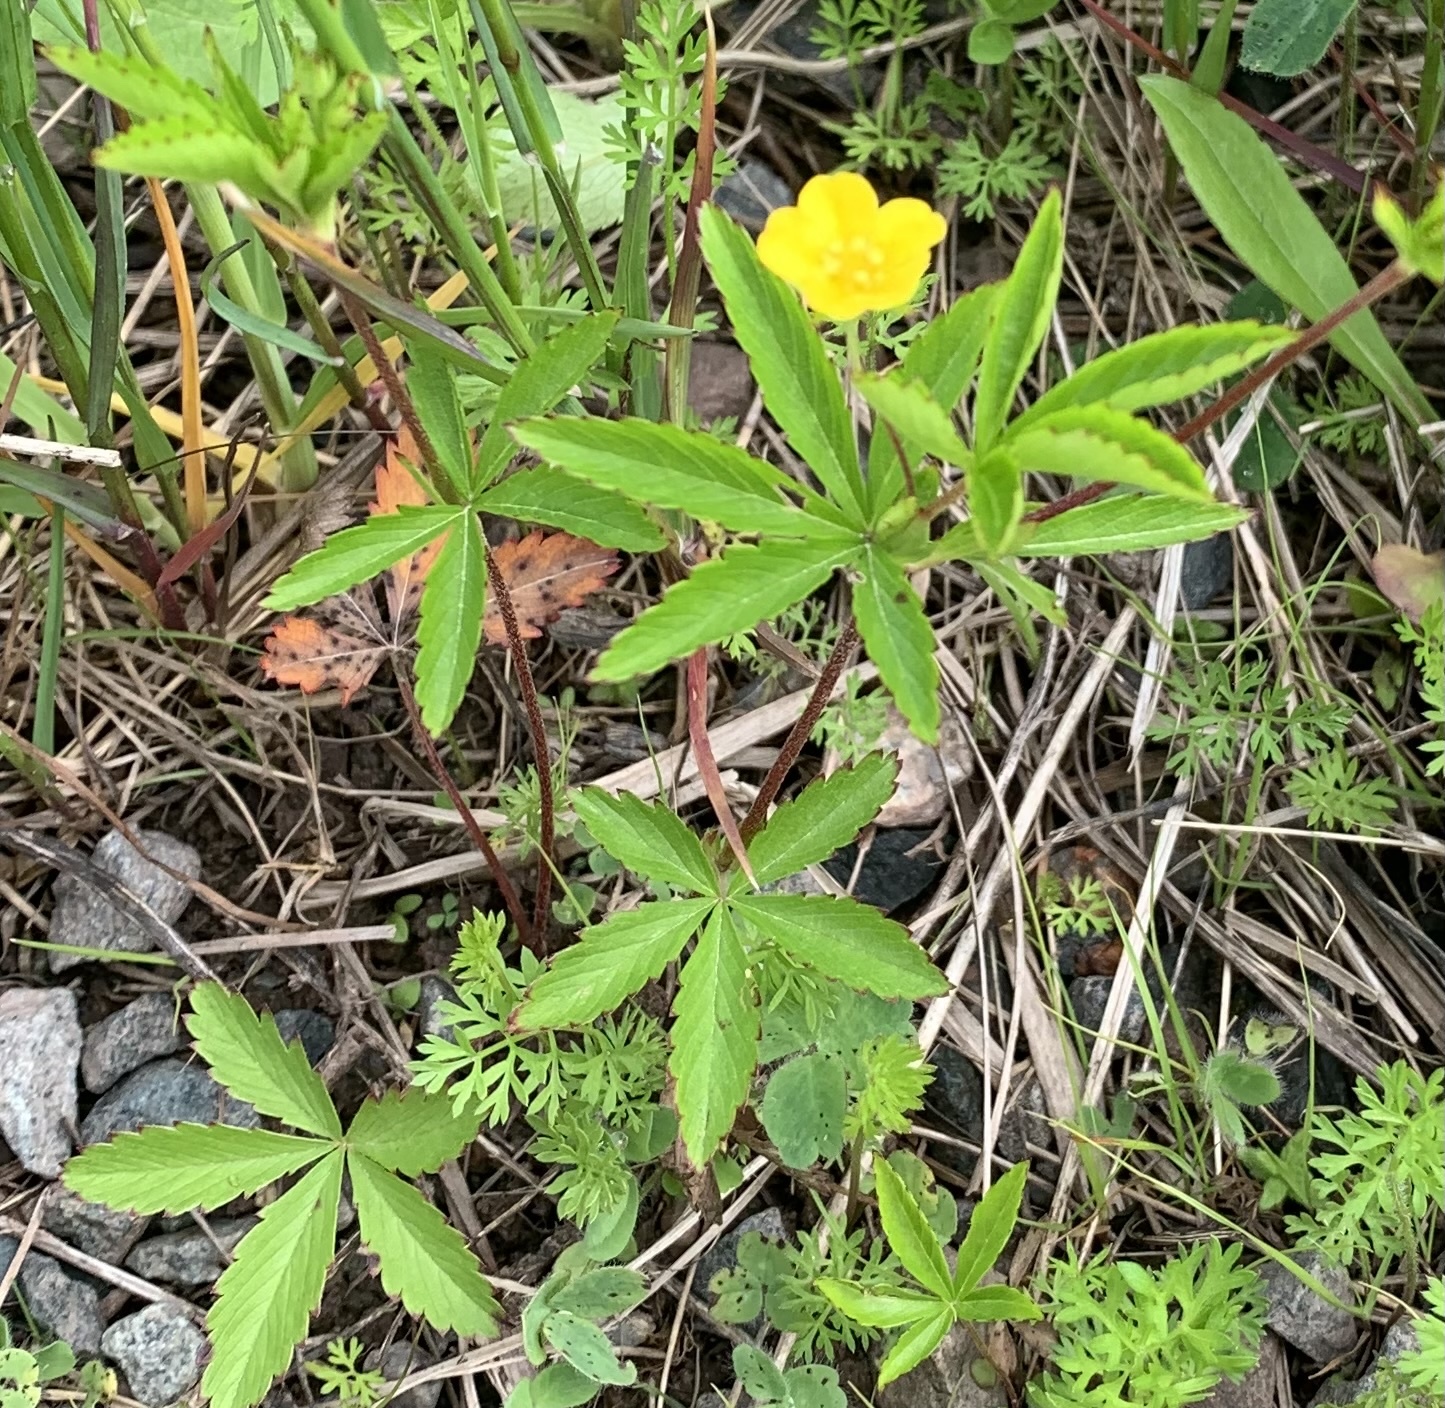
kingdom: Plantae
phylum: Tracheophyta
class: Magnoliopsida
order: Rosales
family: Rosaceae
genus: Potentilla
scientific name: Potentilla simplex
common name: Old field cinquefoil
